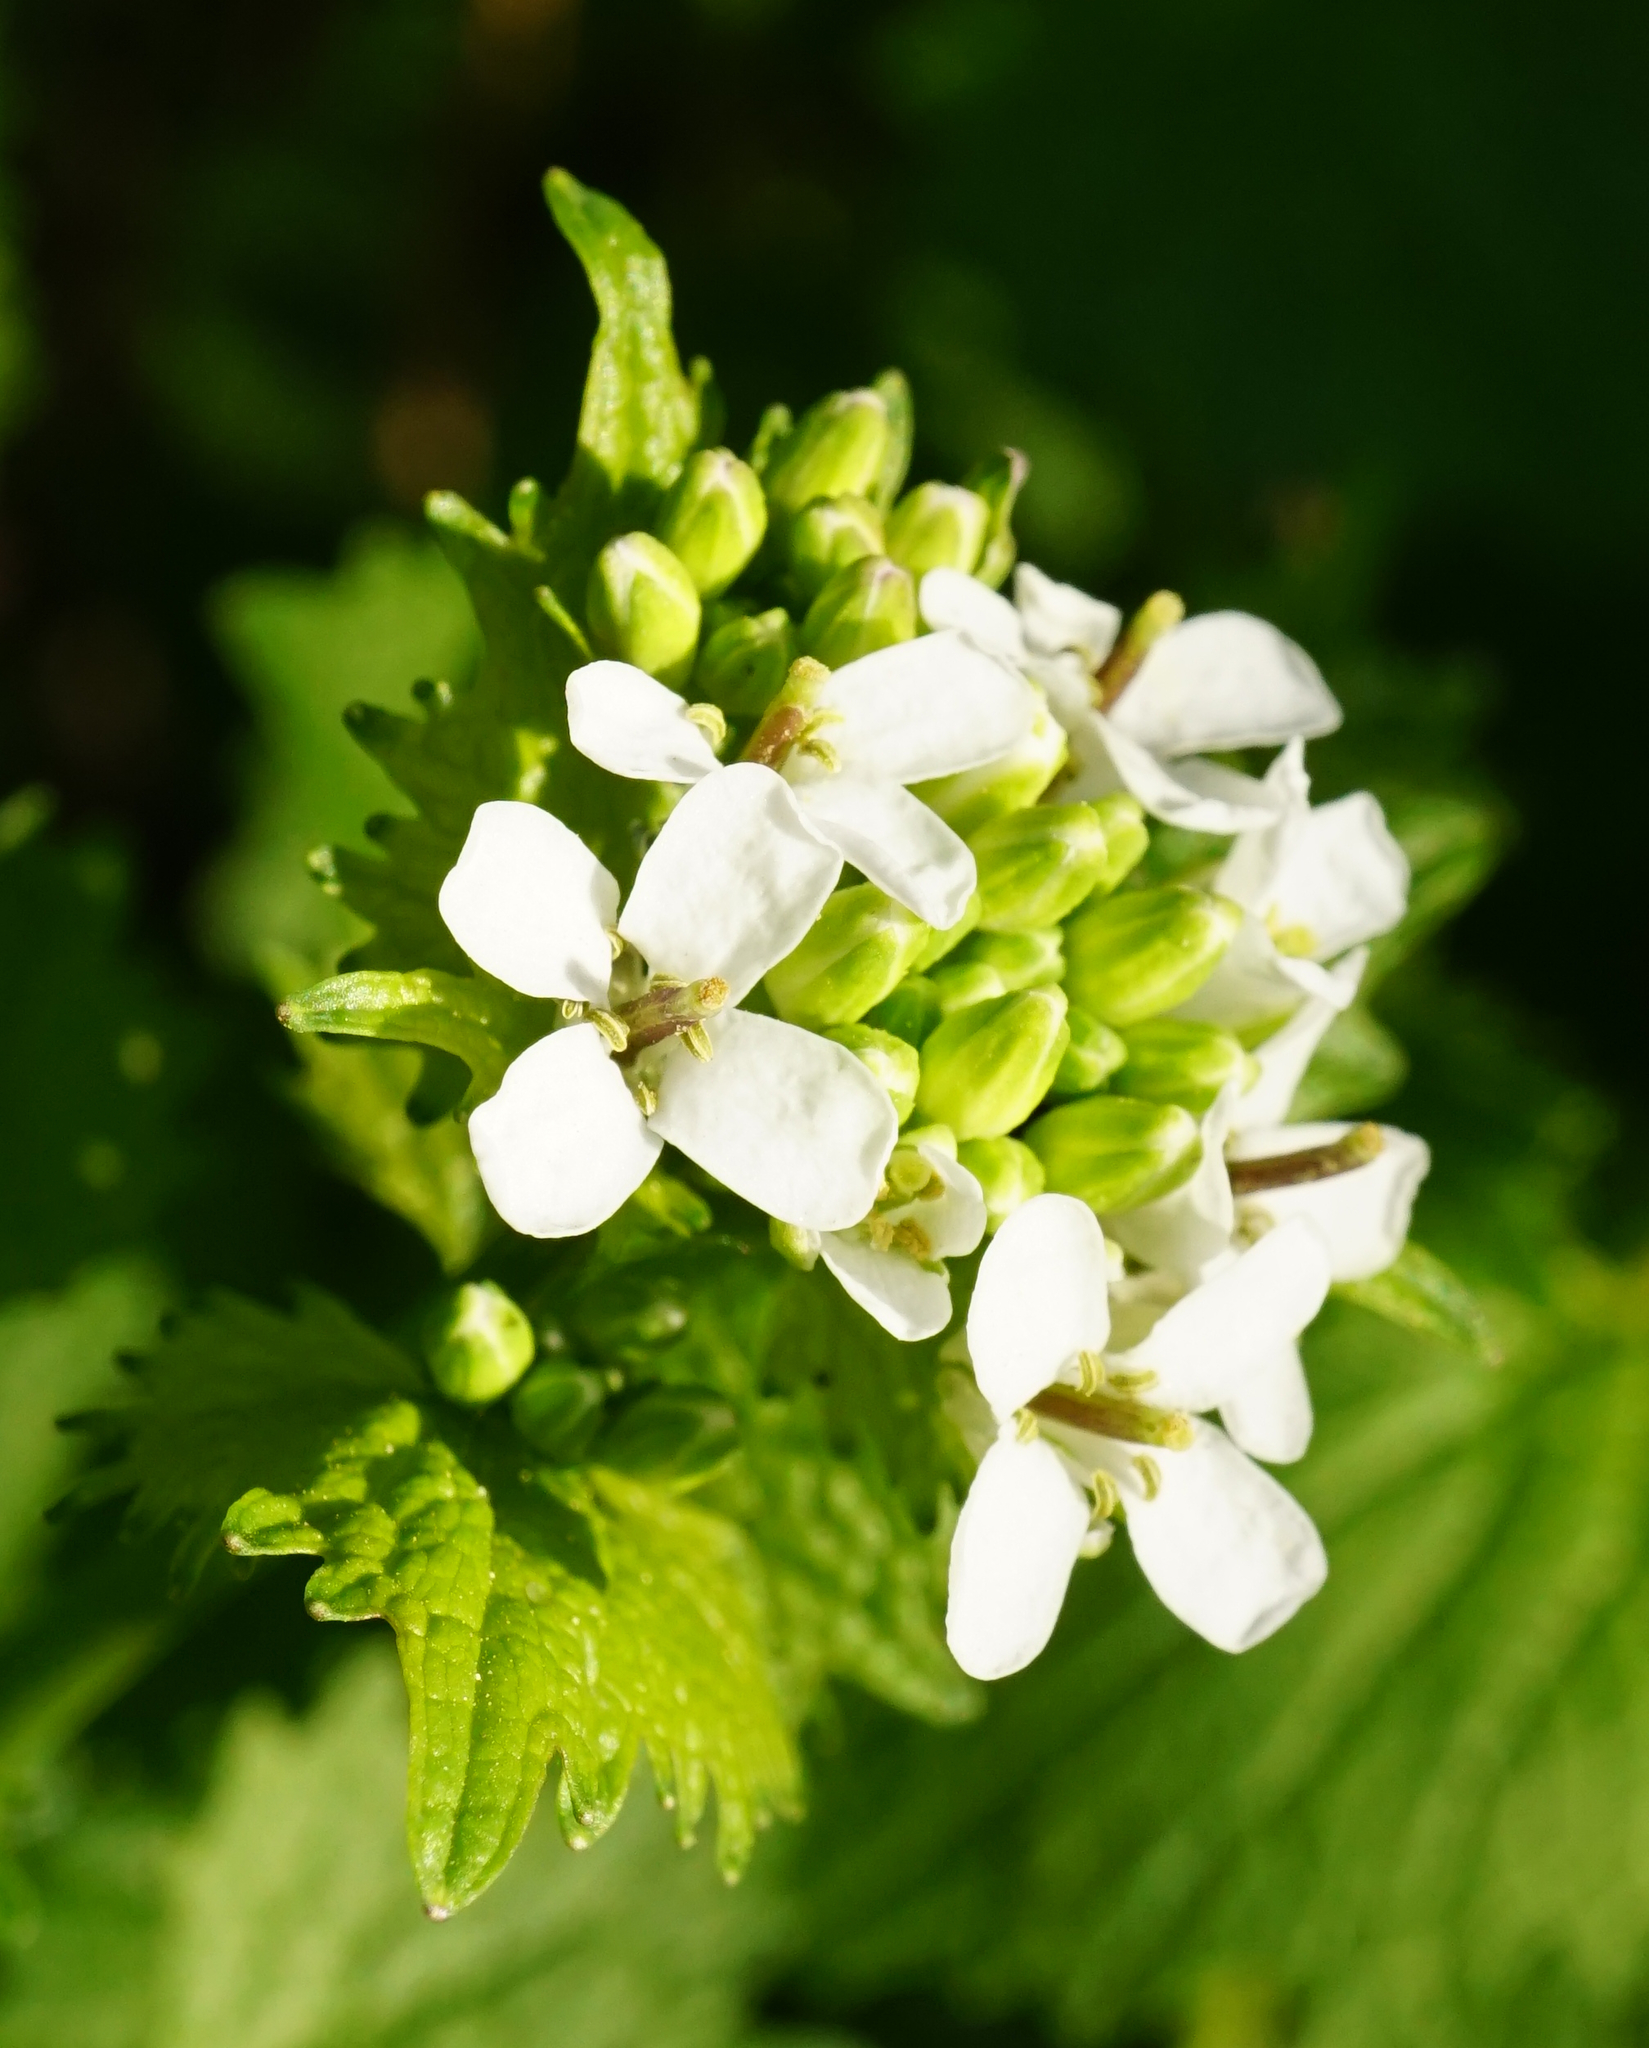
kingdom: Plantae
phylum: Tracheophyta
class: Magnoliopsida
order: Brassicales
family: Brassicaceae
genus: Alliaria
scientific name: Alliaria petiolata
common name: Garlic mustard
